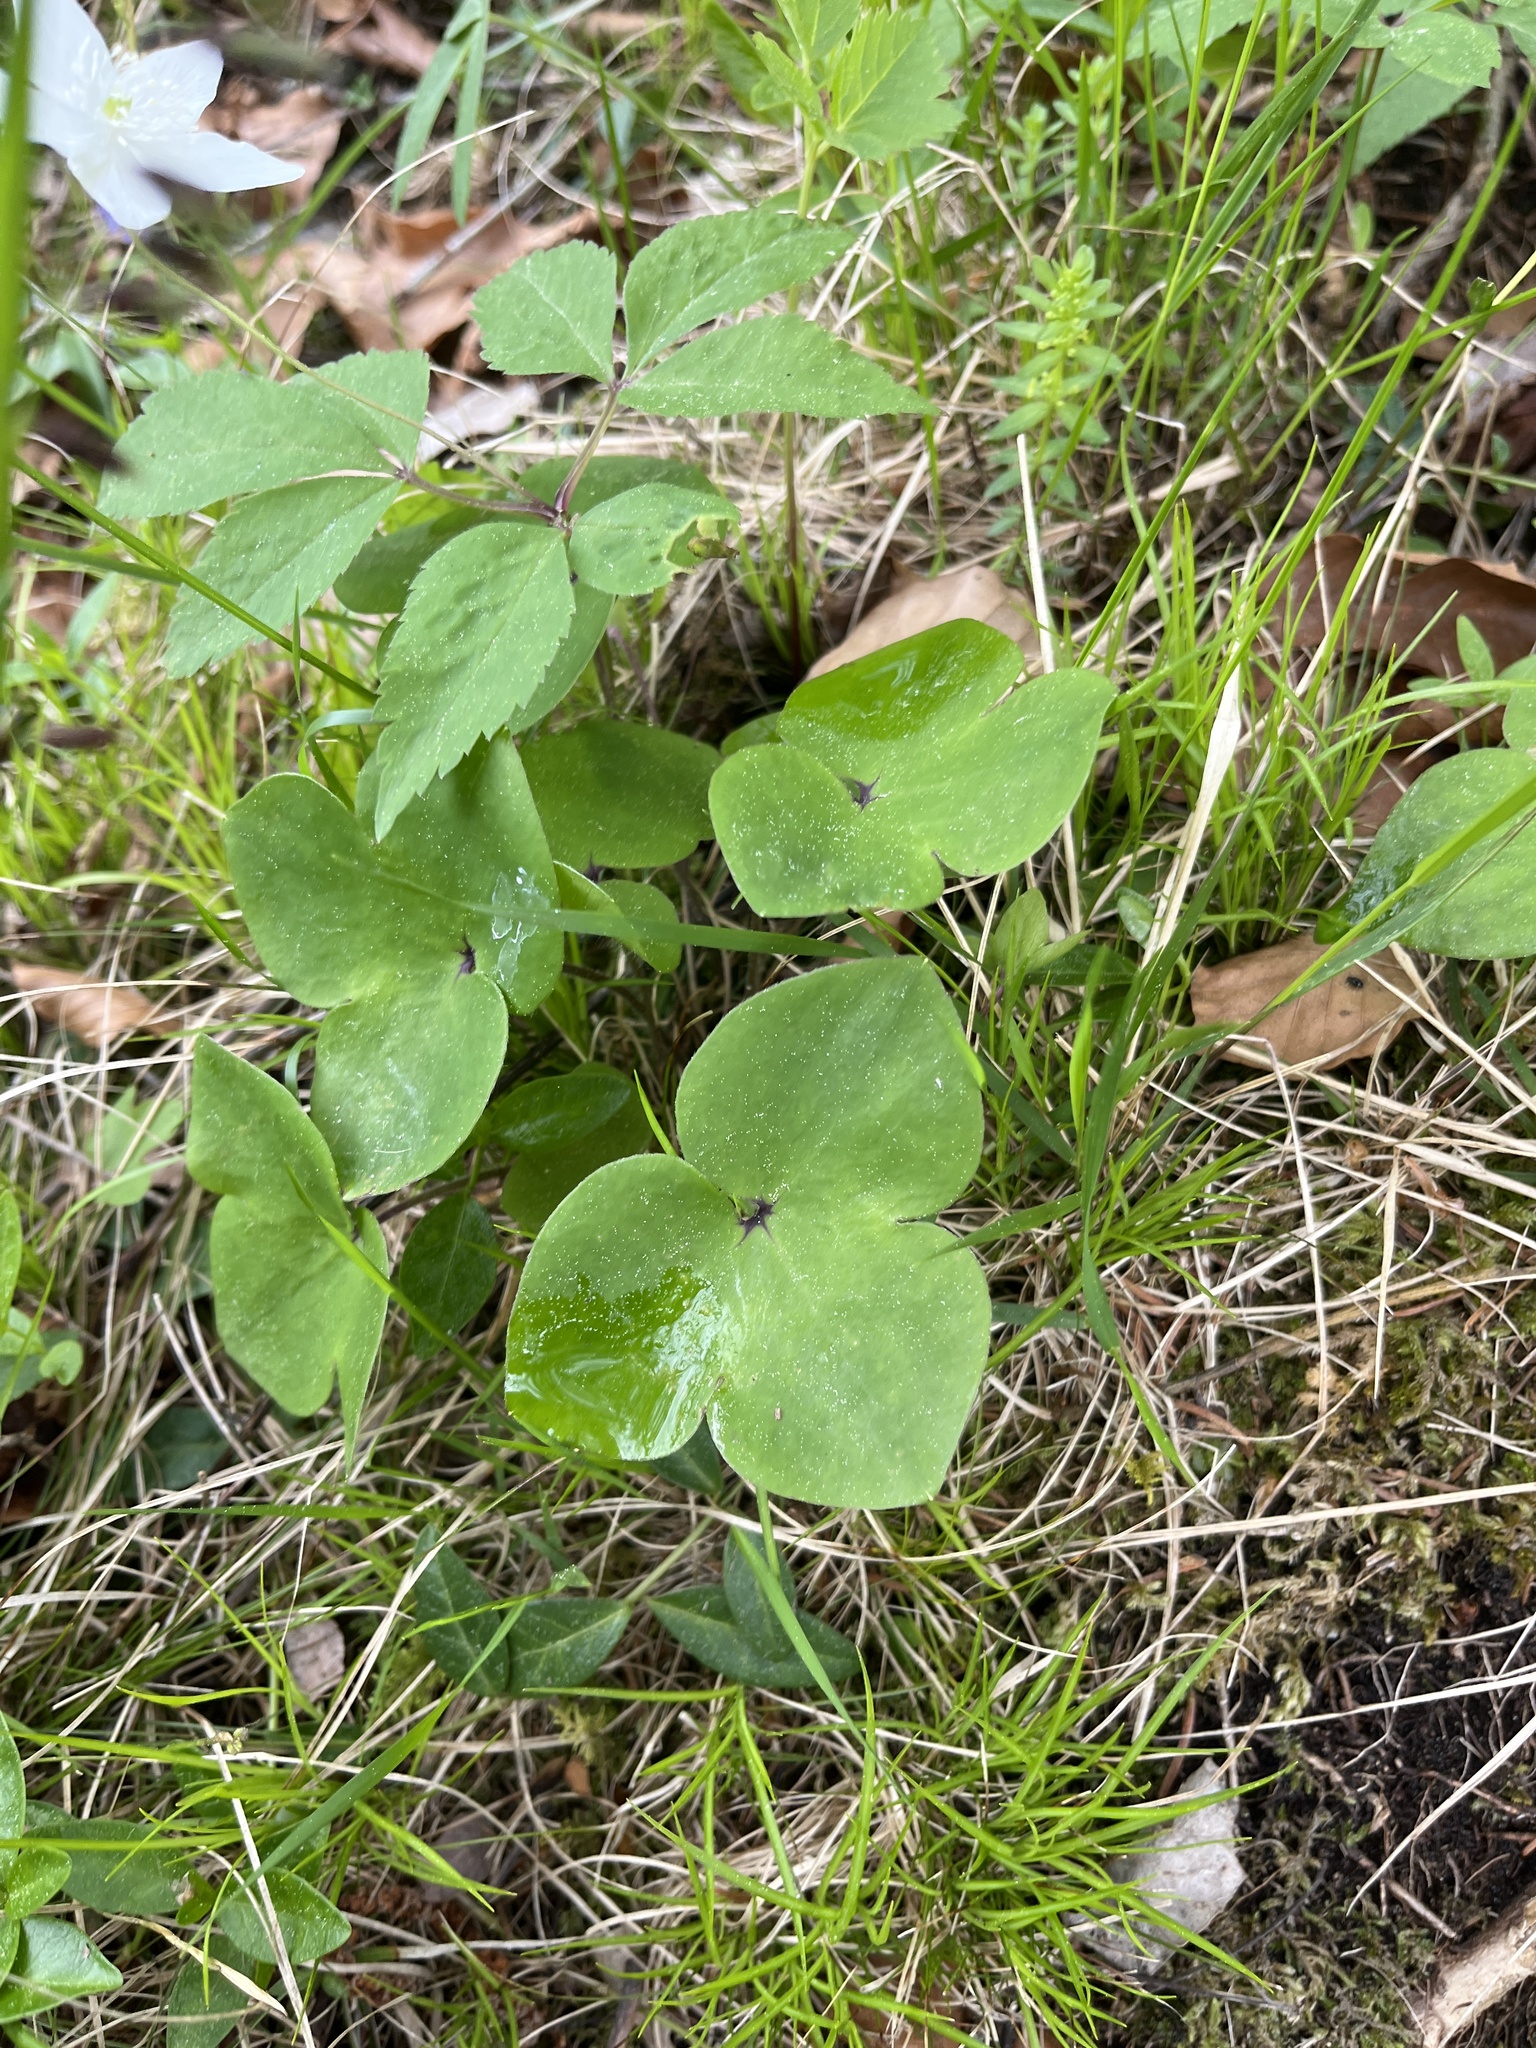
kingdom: Plantae
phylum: Tracheophyta
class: Magnoliopsida
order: Ranunculales
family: Ranunculaceae
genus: Hepatica
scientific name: Hepatica nobilis
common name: Liverleaf
